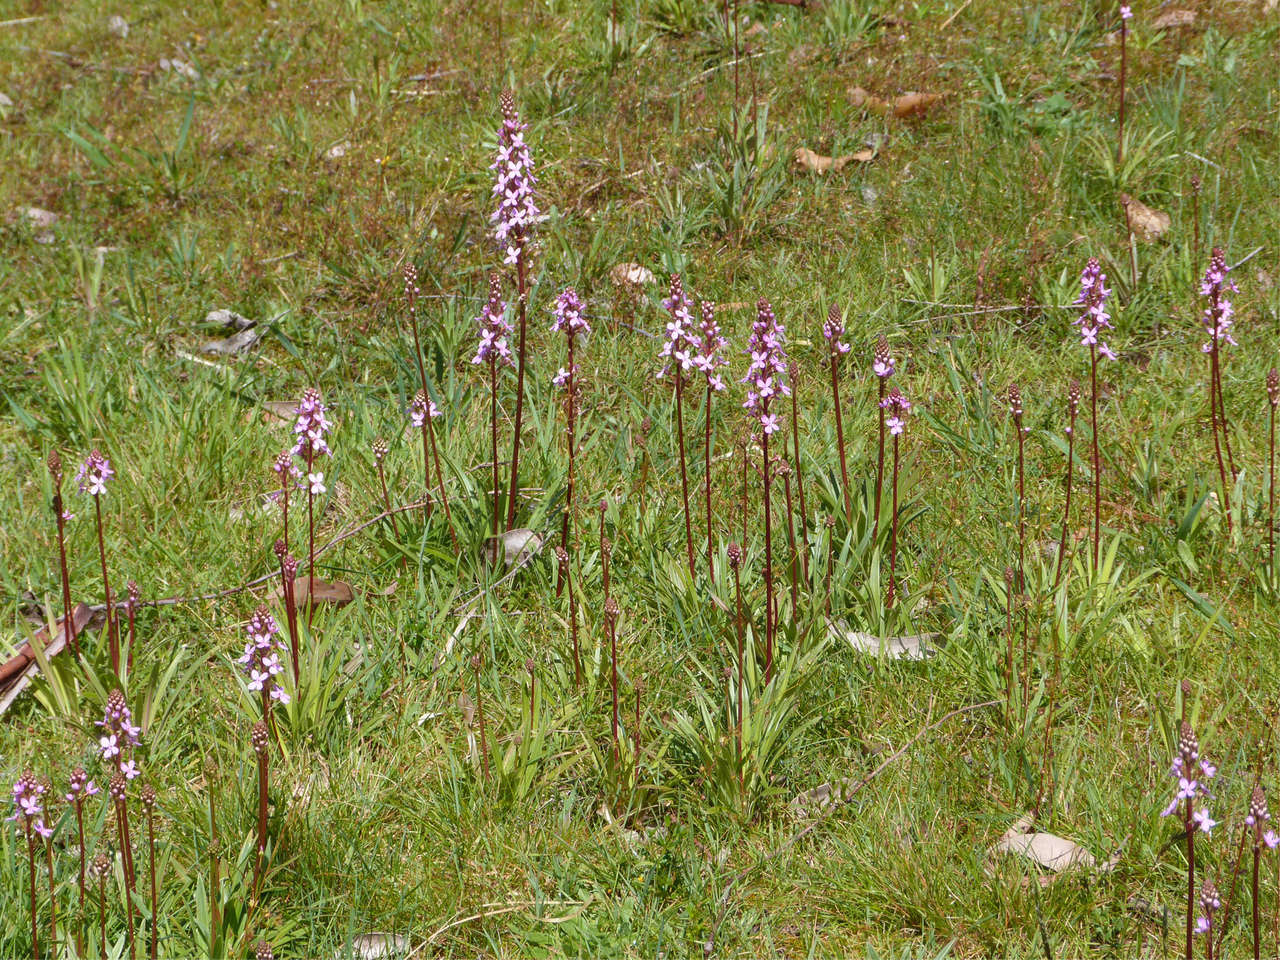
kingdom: Plantae
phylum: Tracheophyta
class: Magnoliopsida
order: Asterales
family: Stylidiaceae
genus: Stylidium
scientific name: Stylidium armeria
